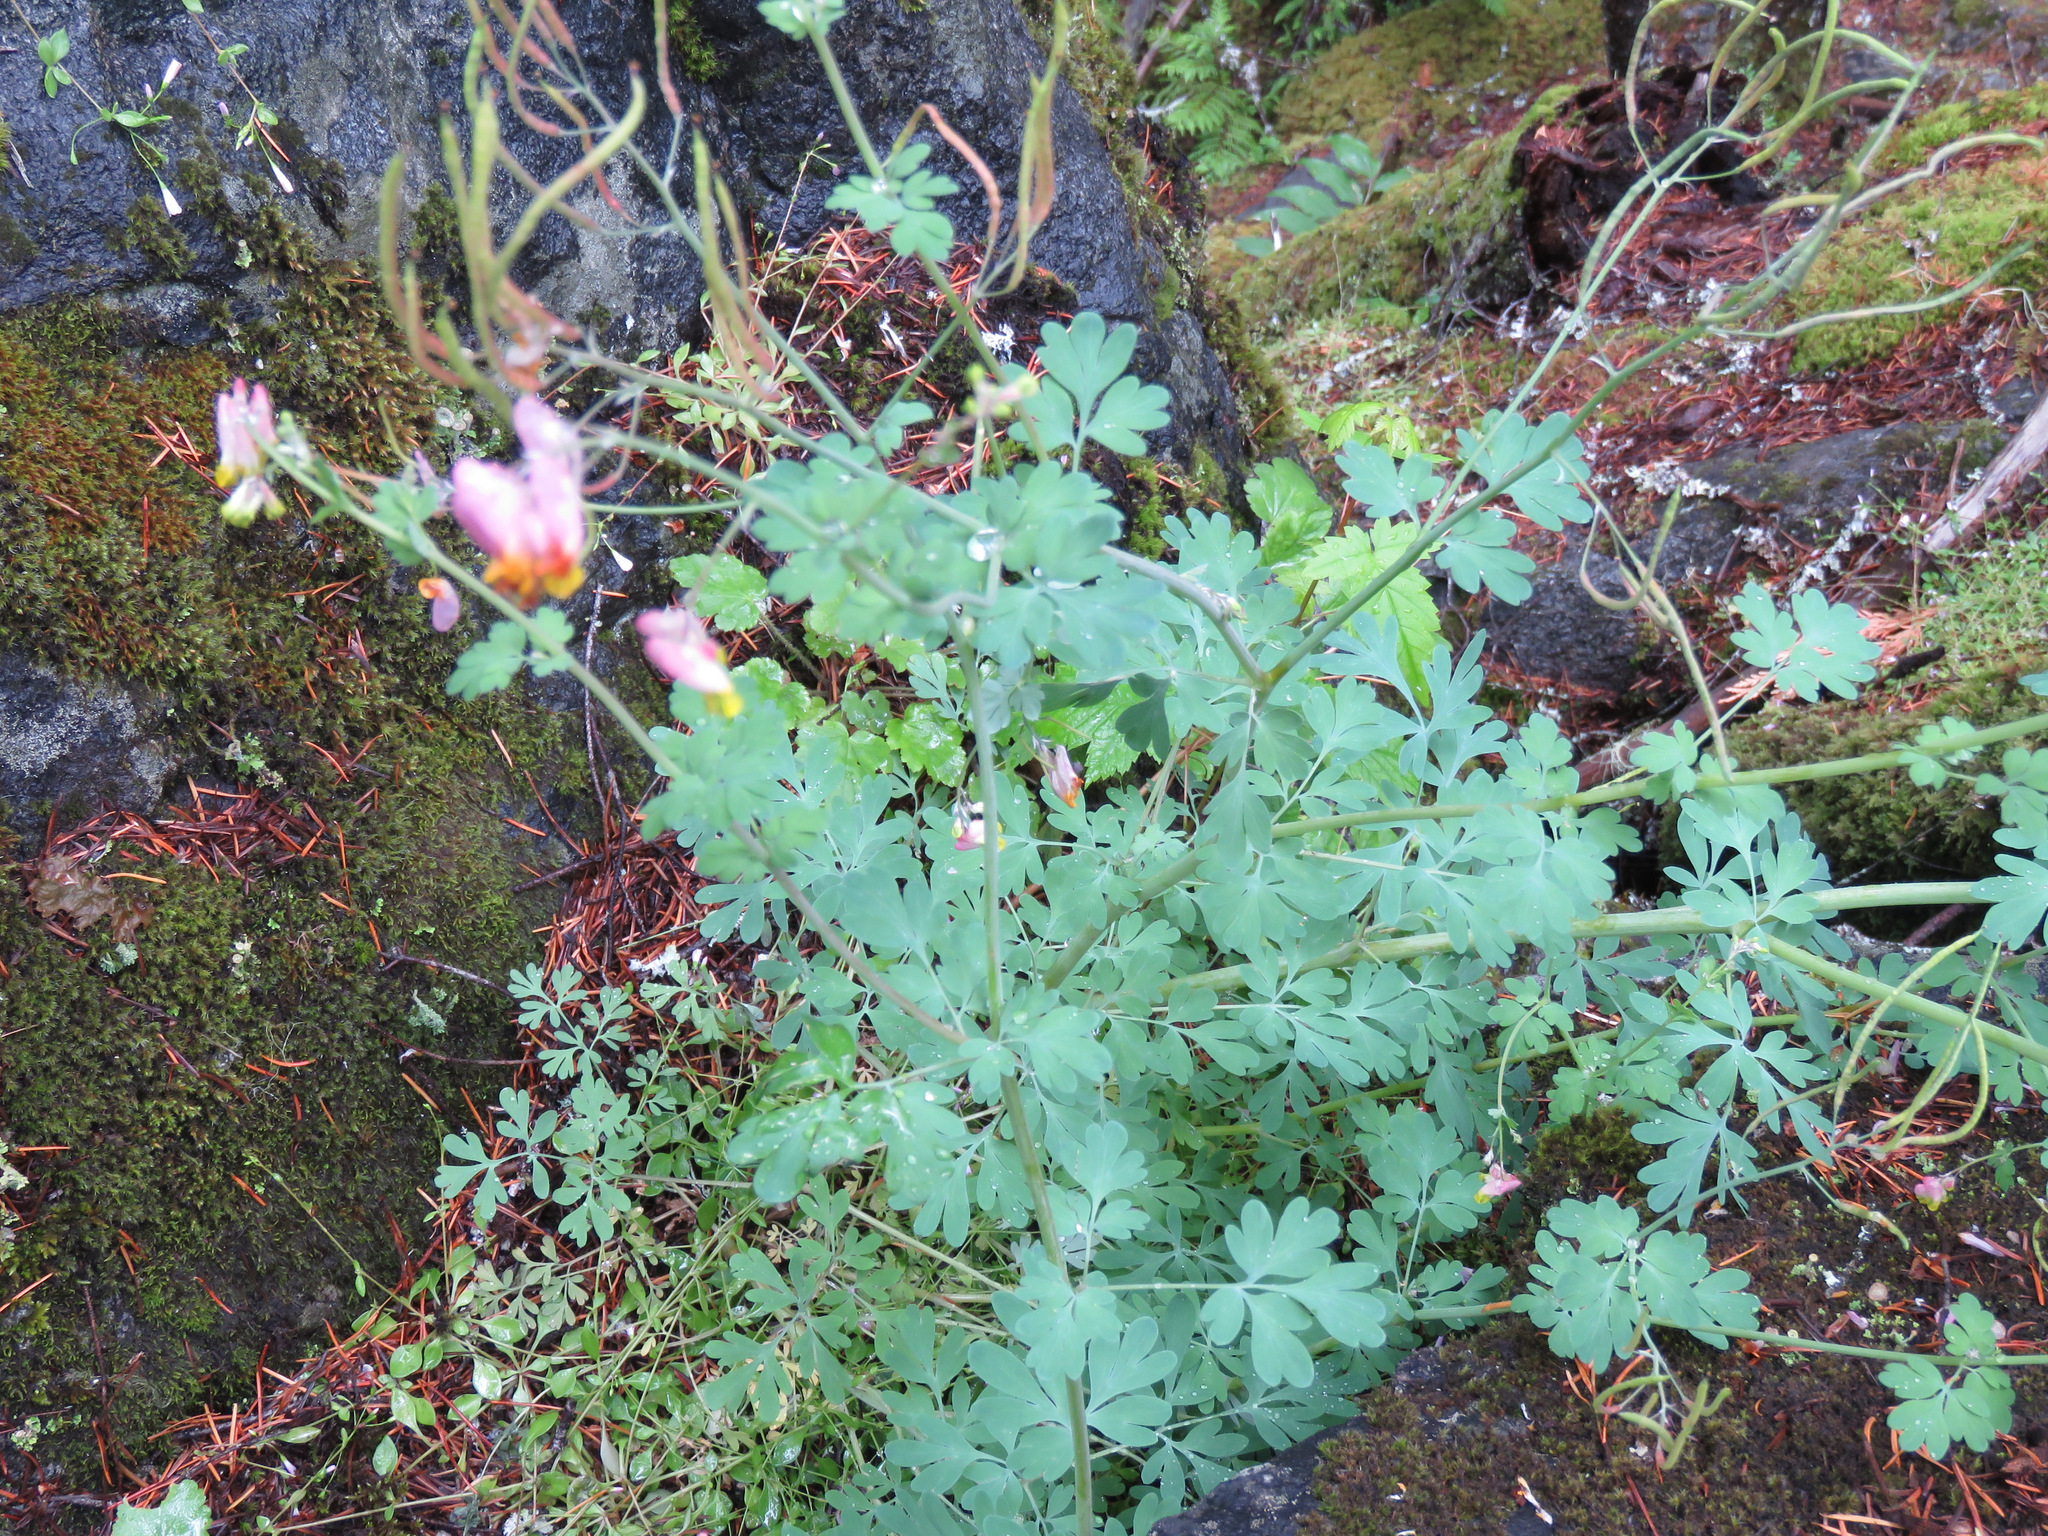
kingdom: Plantae
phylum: Tracheophyta
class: Magnoliopsida
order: Ranunculales
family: Papaveraceae
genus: Capnoides
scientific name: Capnoides sempervirens
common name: Rock harlequin
